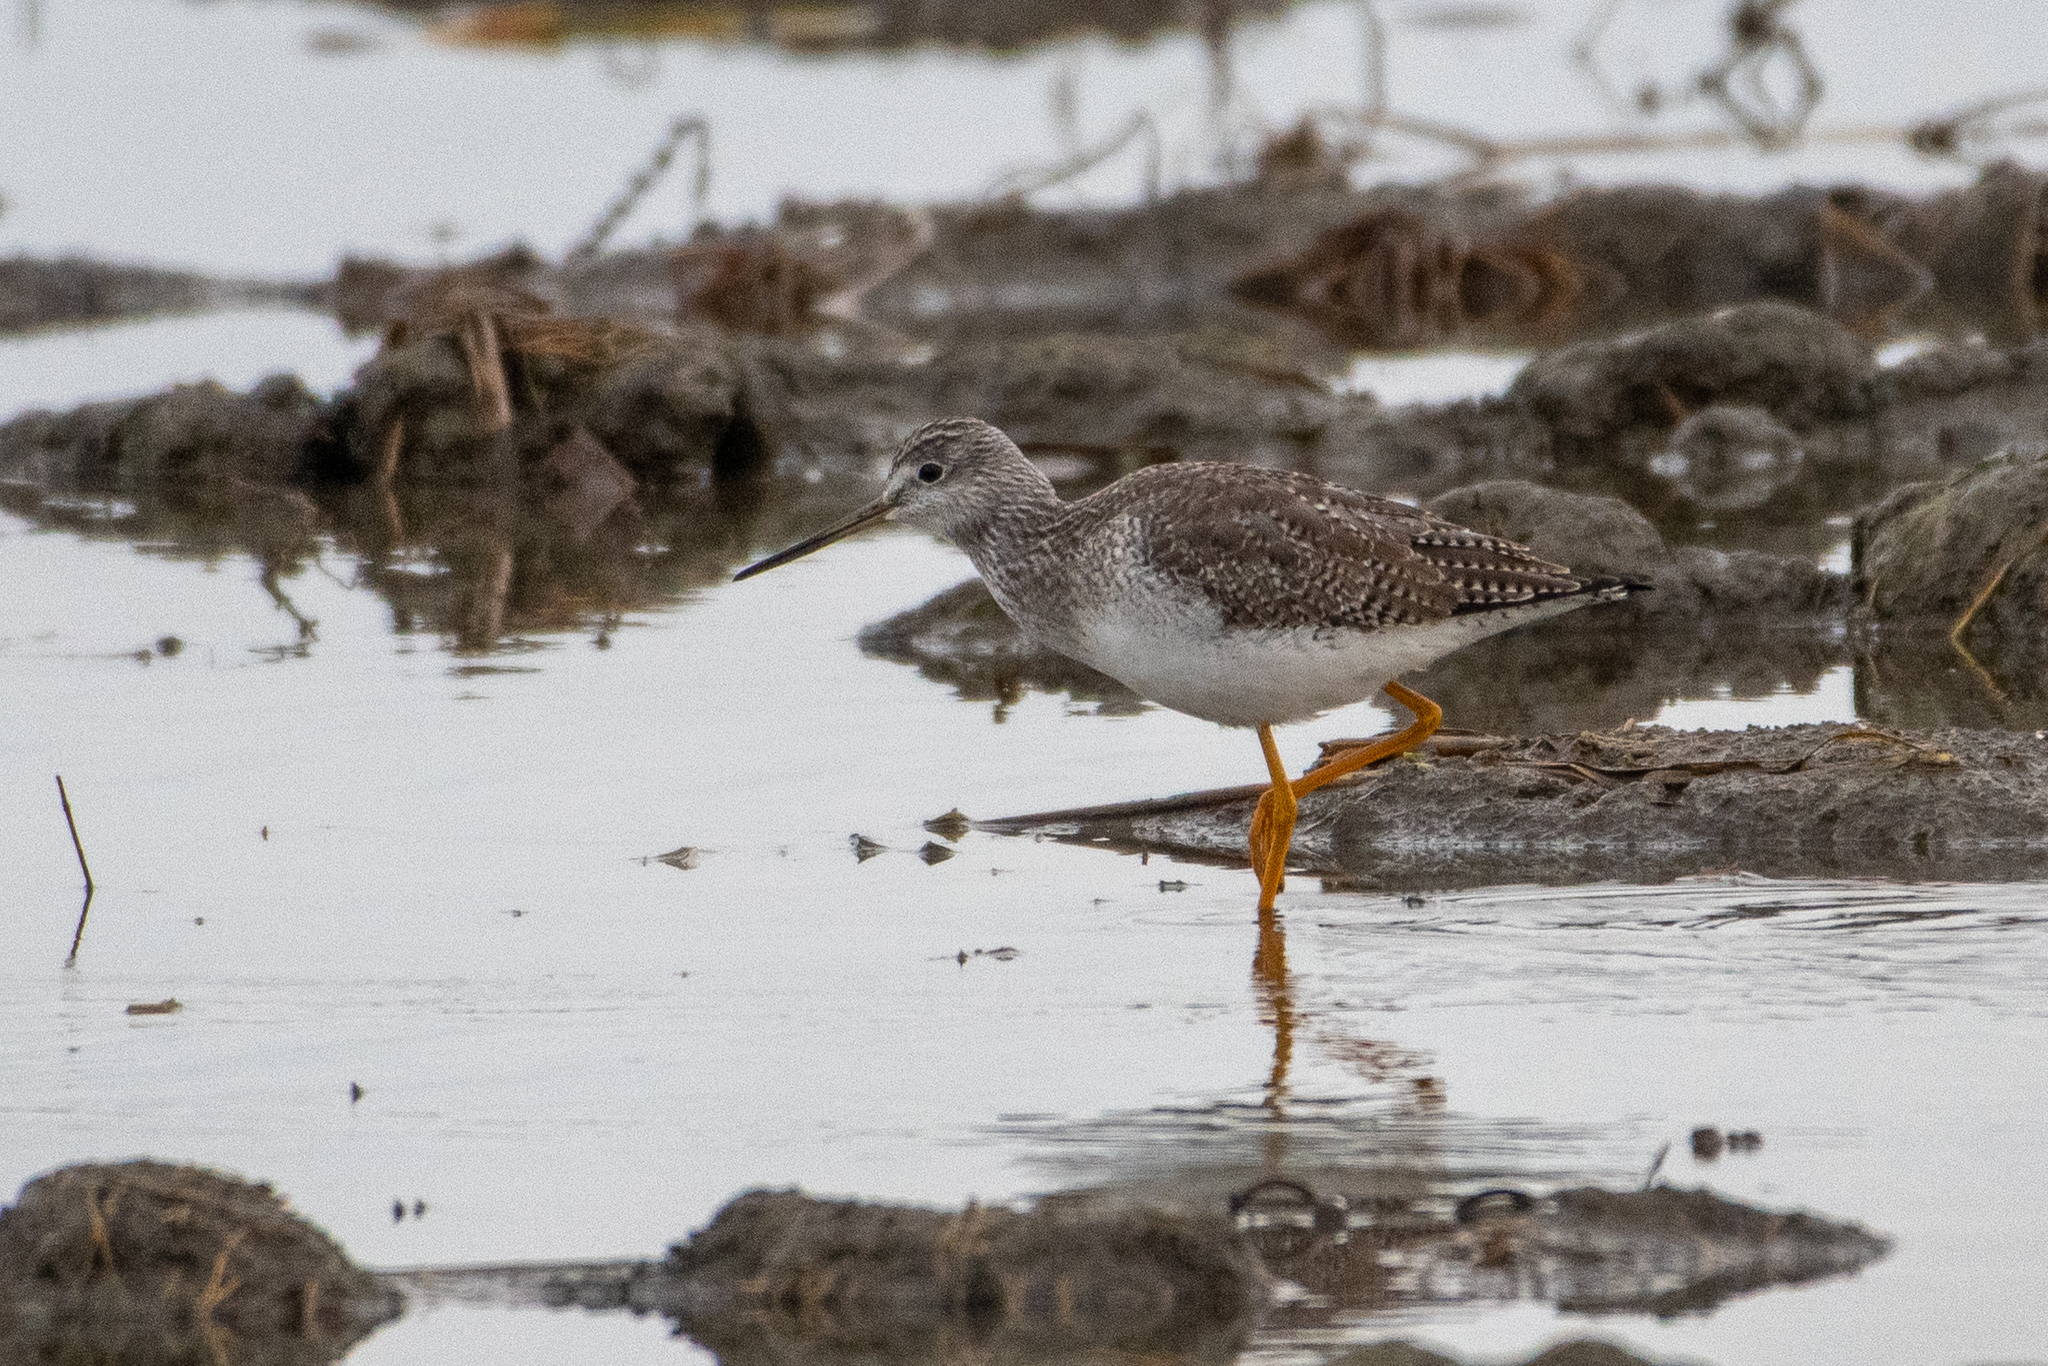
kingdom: Animalia
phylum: Chordata
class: Aves
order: Charadriiformes
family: Scolopacidae
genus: Tringa
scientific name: Tringa melanoleuca
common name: Greater yellowlegs
